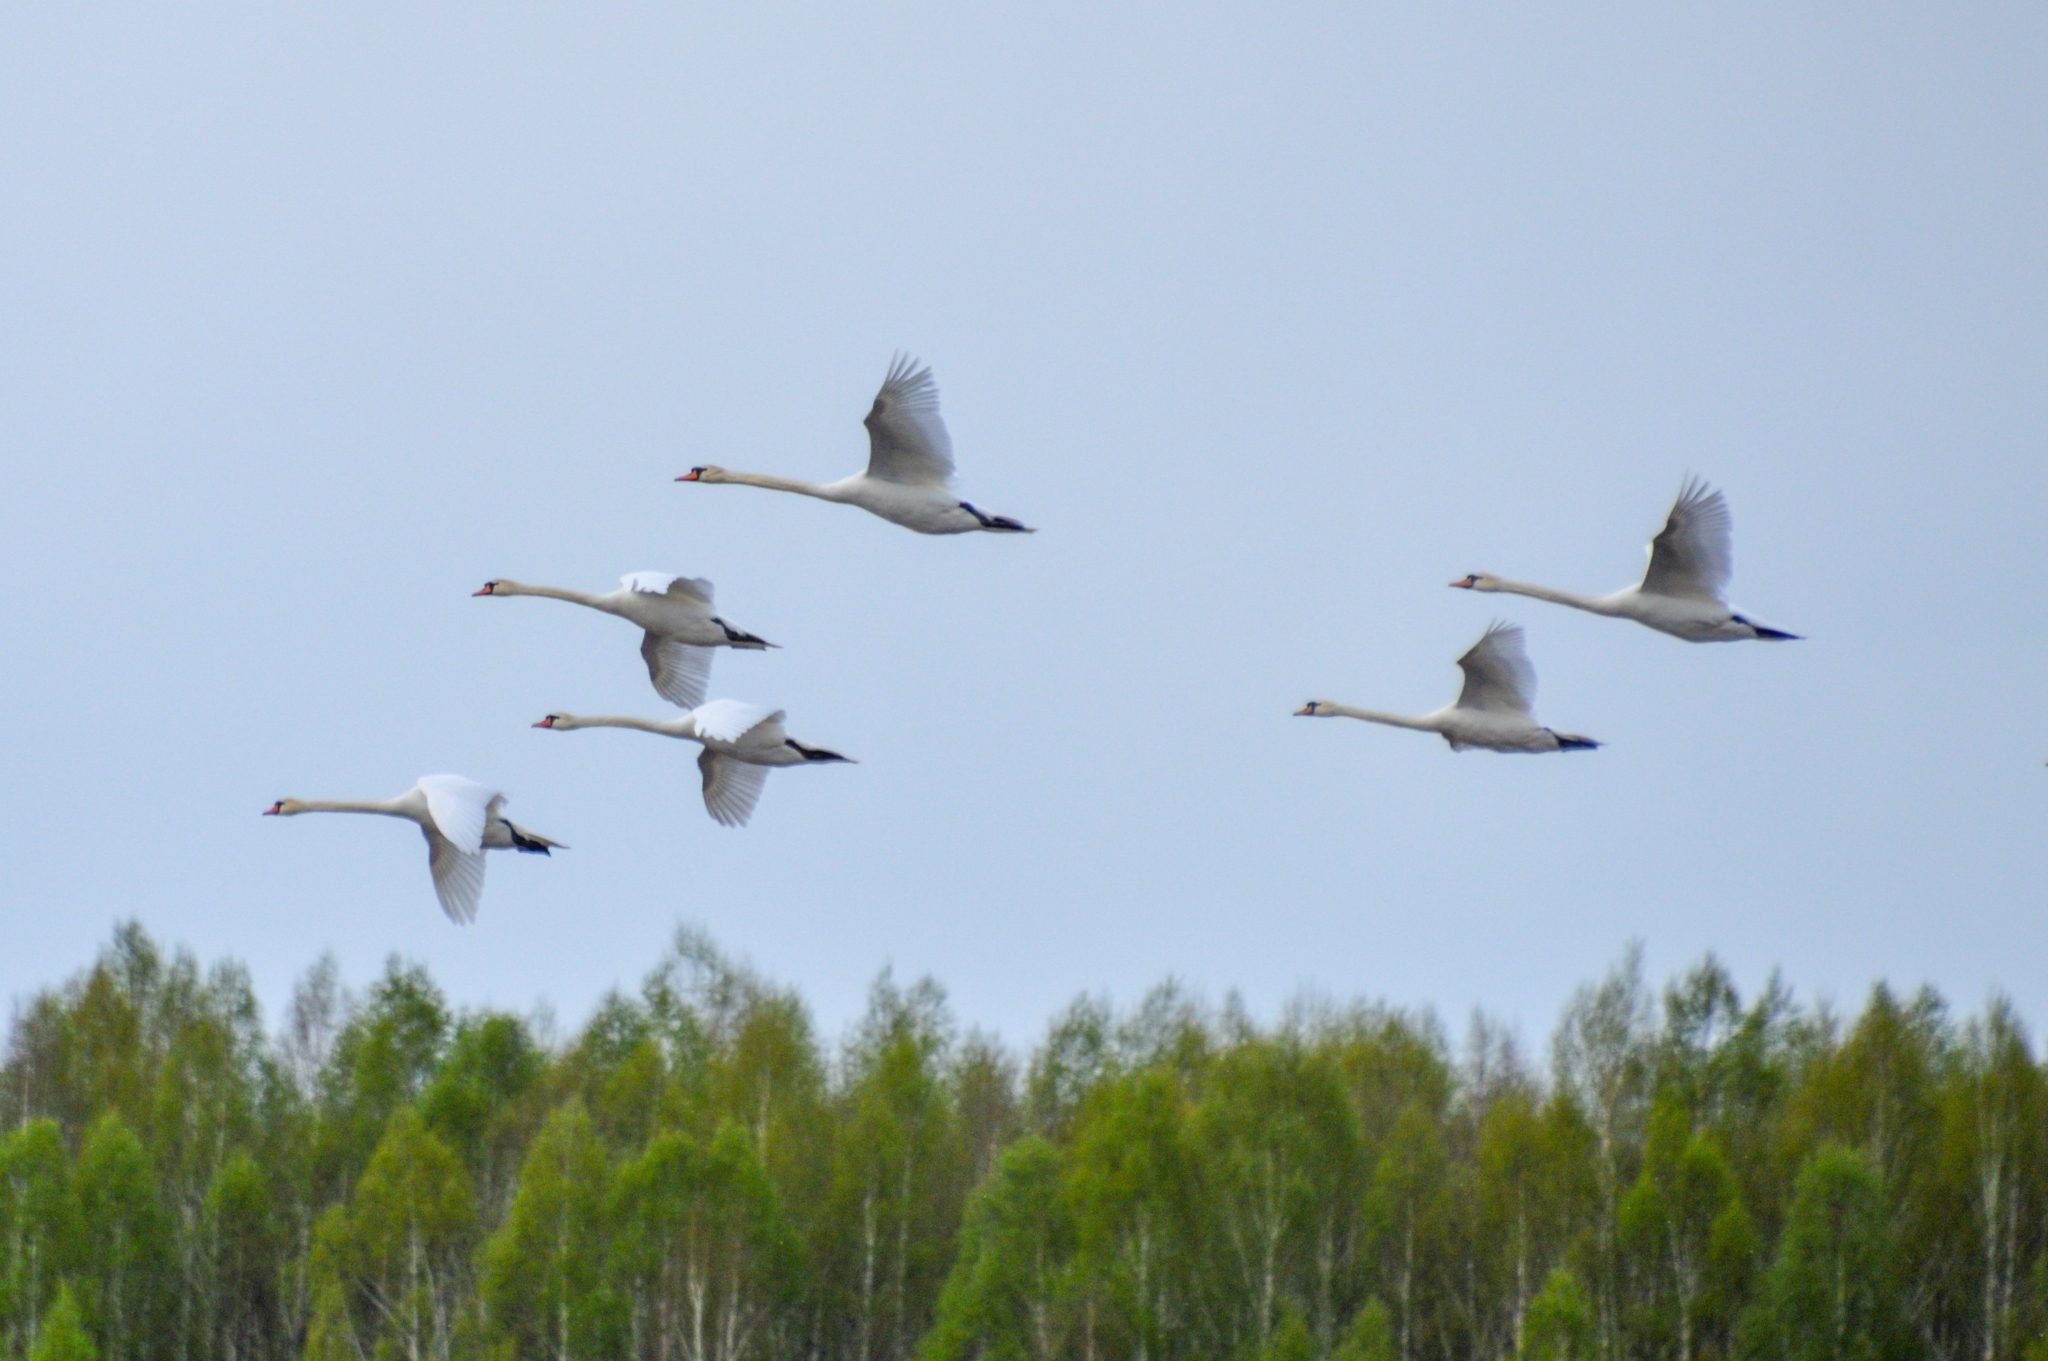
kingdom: Animalia
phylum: Chordata
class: Aves
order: Anseriformes
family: Anatidae
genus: Cygnus
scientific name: Cygnus olor
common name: Mute swan
